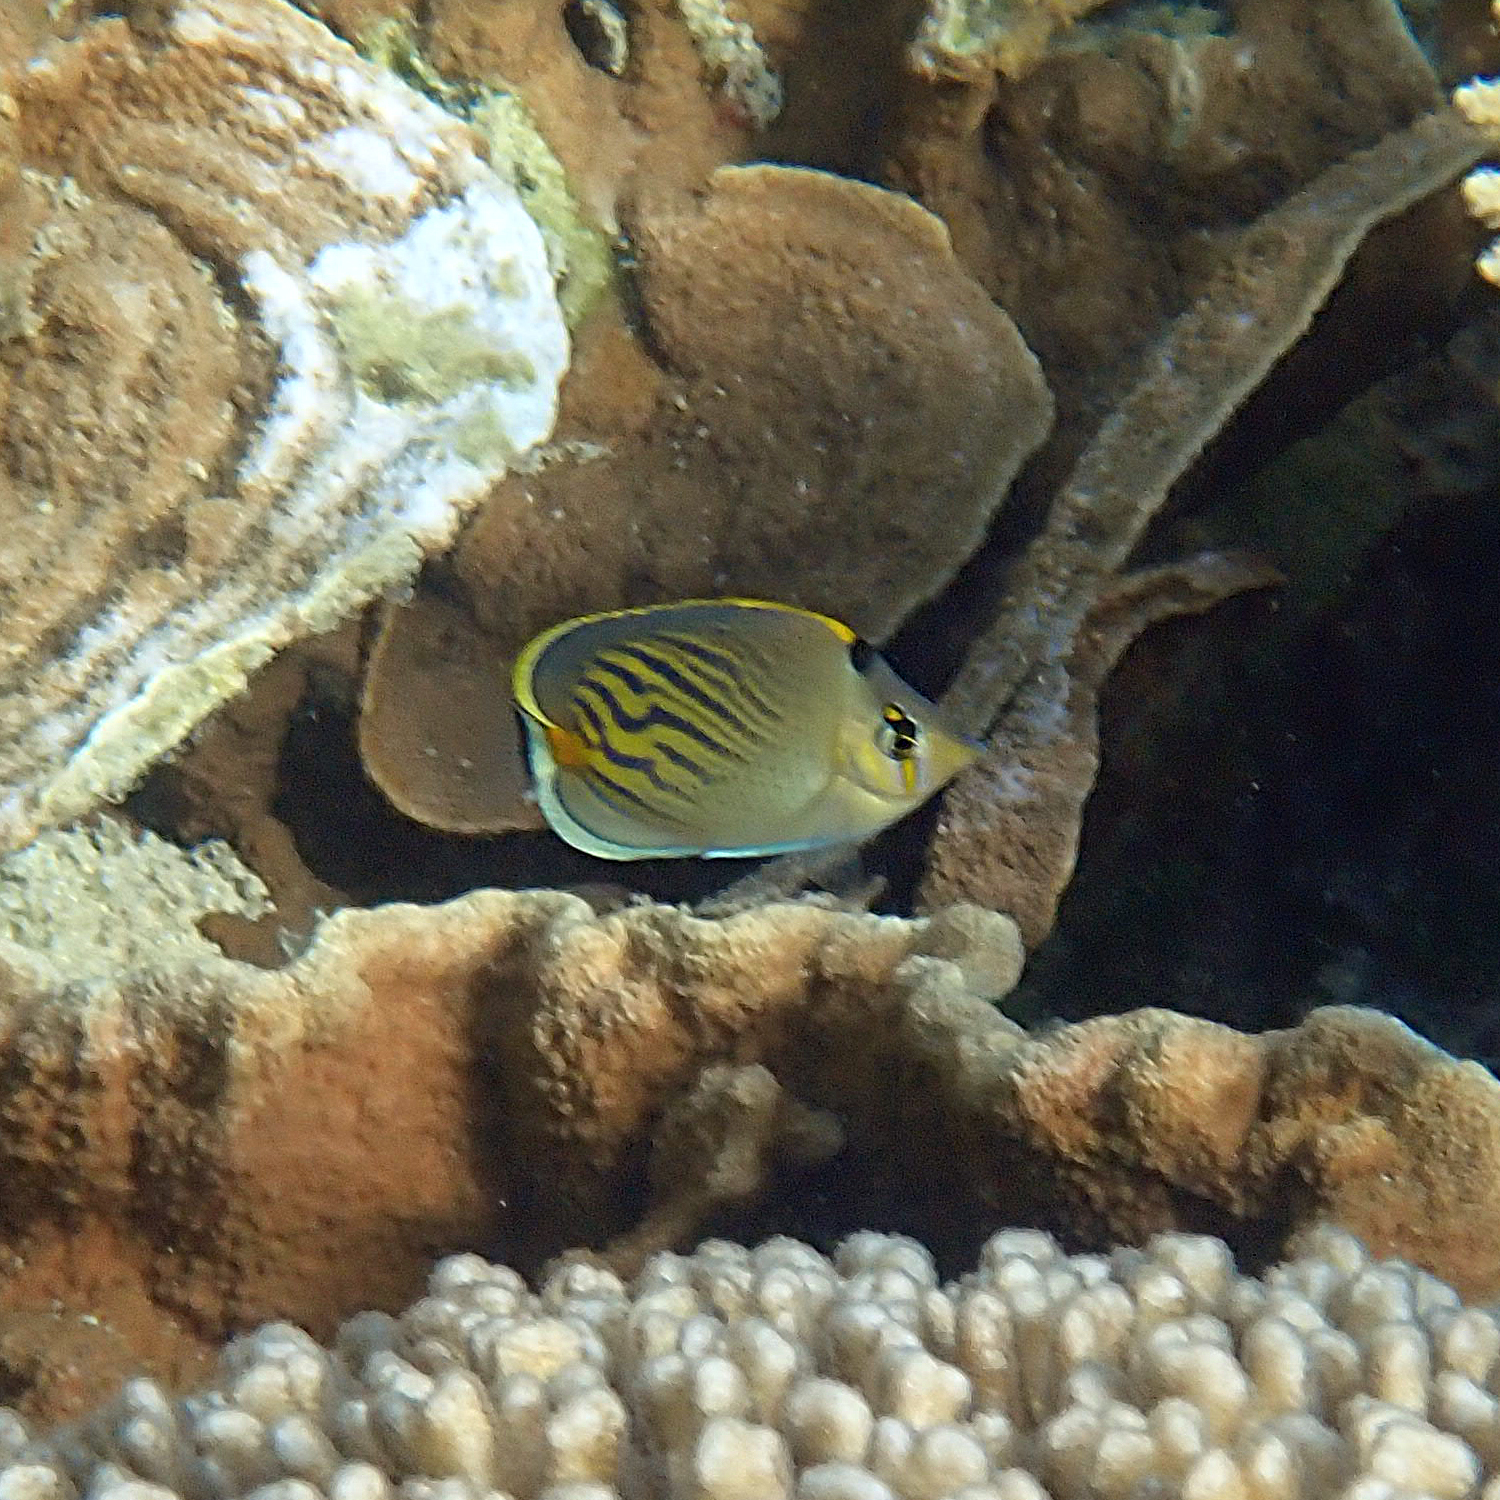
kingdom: Animalia
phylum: Chordata
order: Perciformes
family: Chaetodontidae
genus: Chaetodon
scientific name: Chaetodon pelewensis
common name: Dot-and-dash butterflyfish
